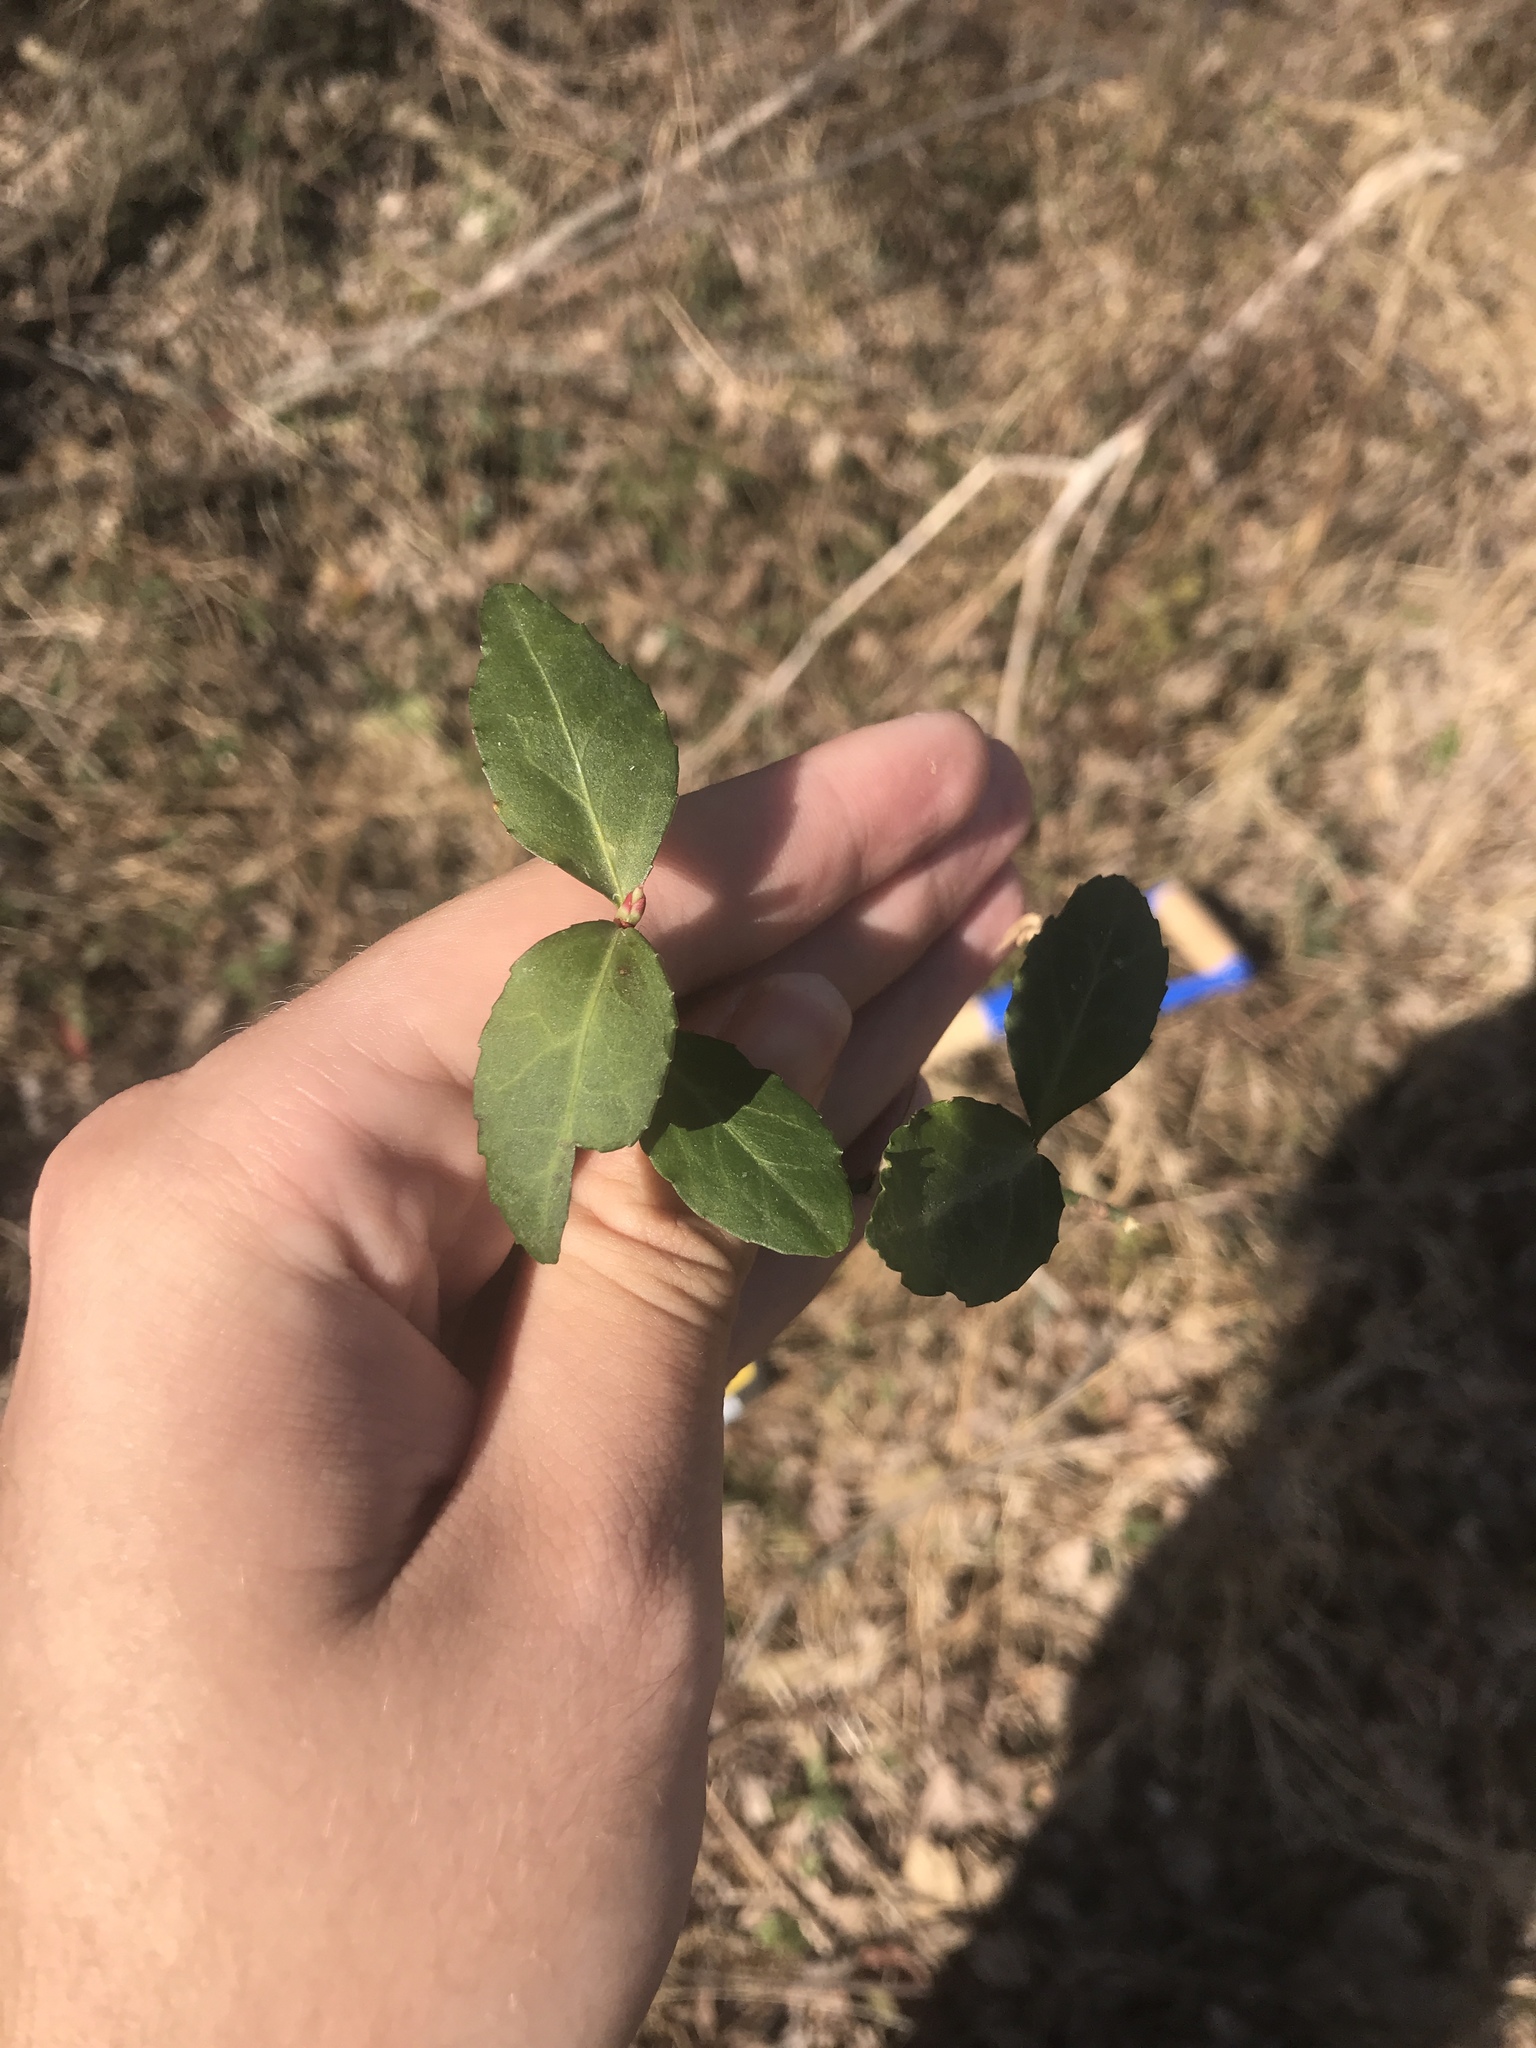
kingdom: Plantae
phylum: Tracheophyta
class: Magnoliopsida
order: Celastrales
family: Celastraceae
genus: Euonymus
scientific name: Euonymus fortunei
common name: Climbing euonymus
